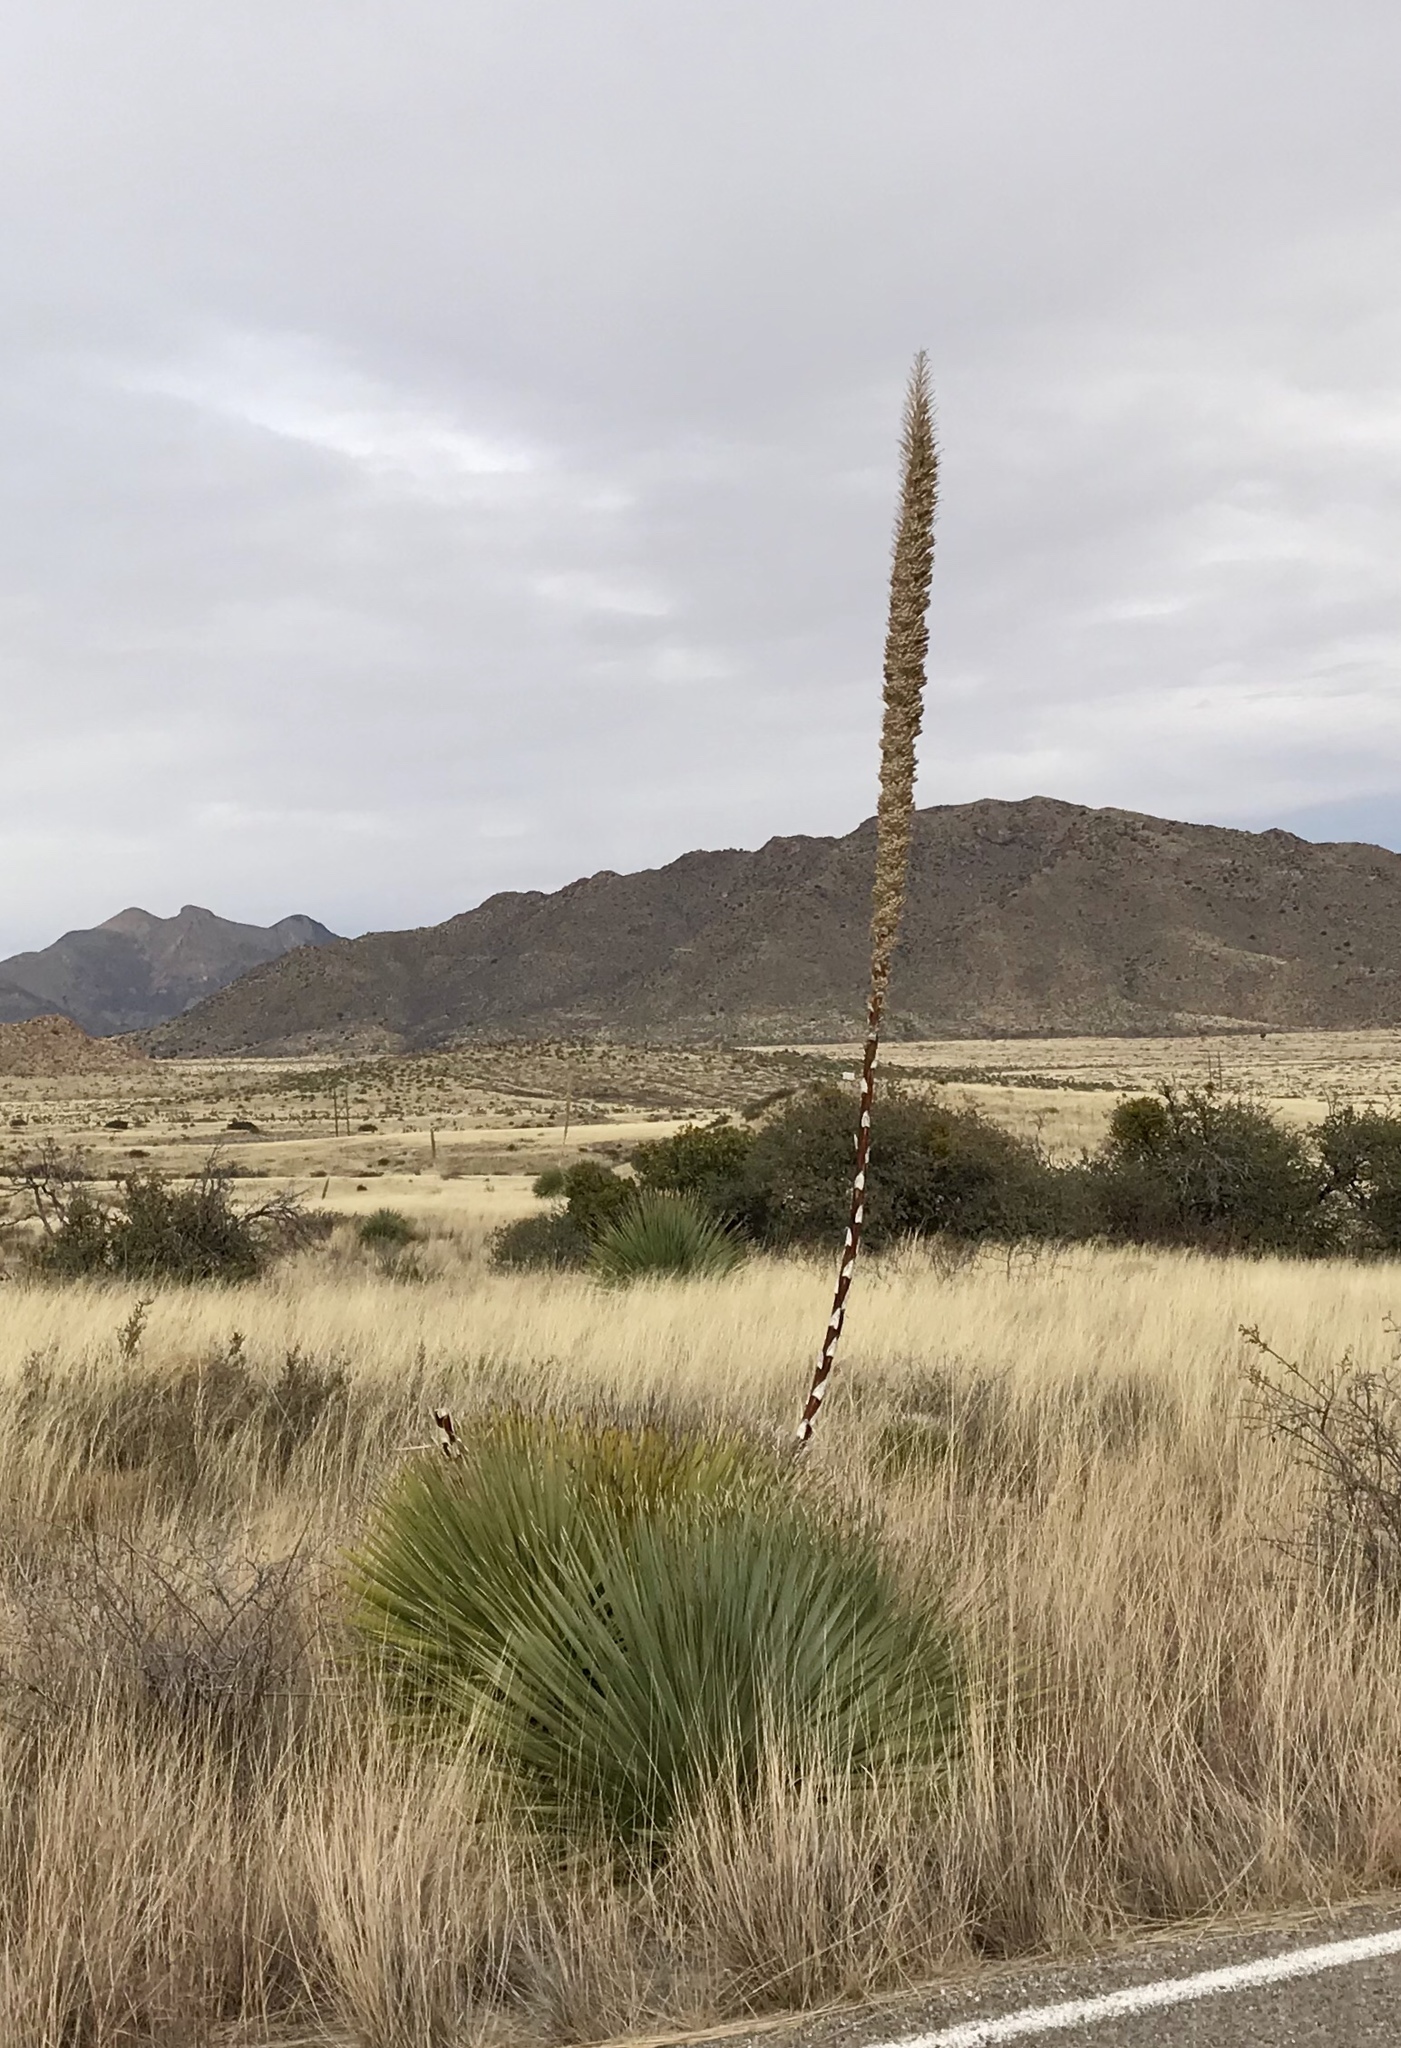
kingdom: Plantae
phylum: Tracheophyta
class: Liliopsida
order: Asparagales
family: Asparagaceae
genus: Dasylirion
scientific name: Dasylirion wheeleri
